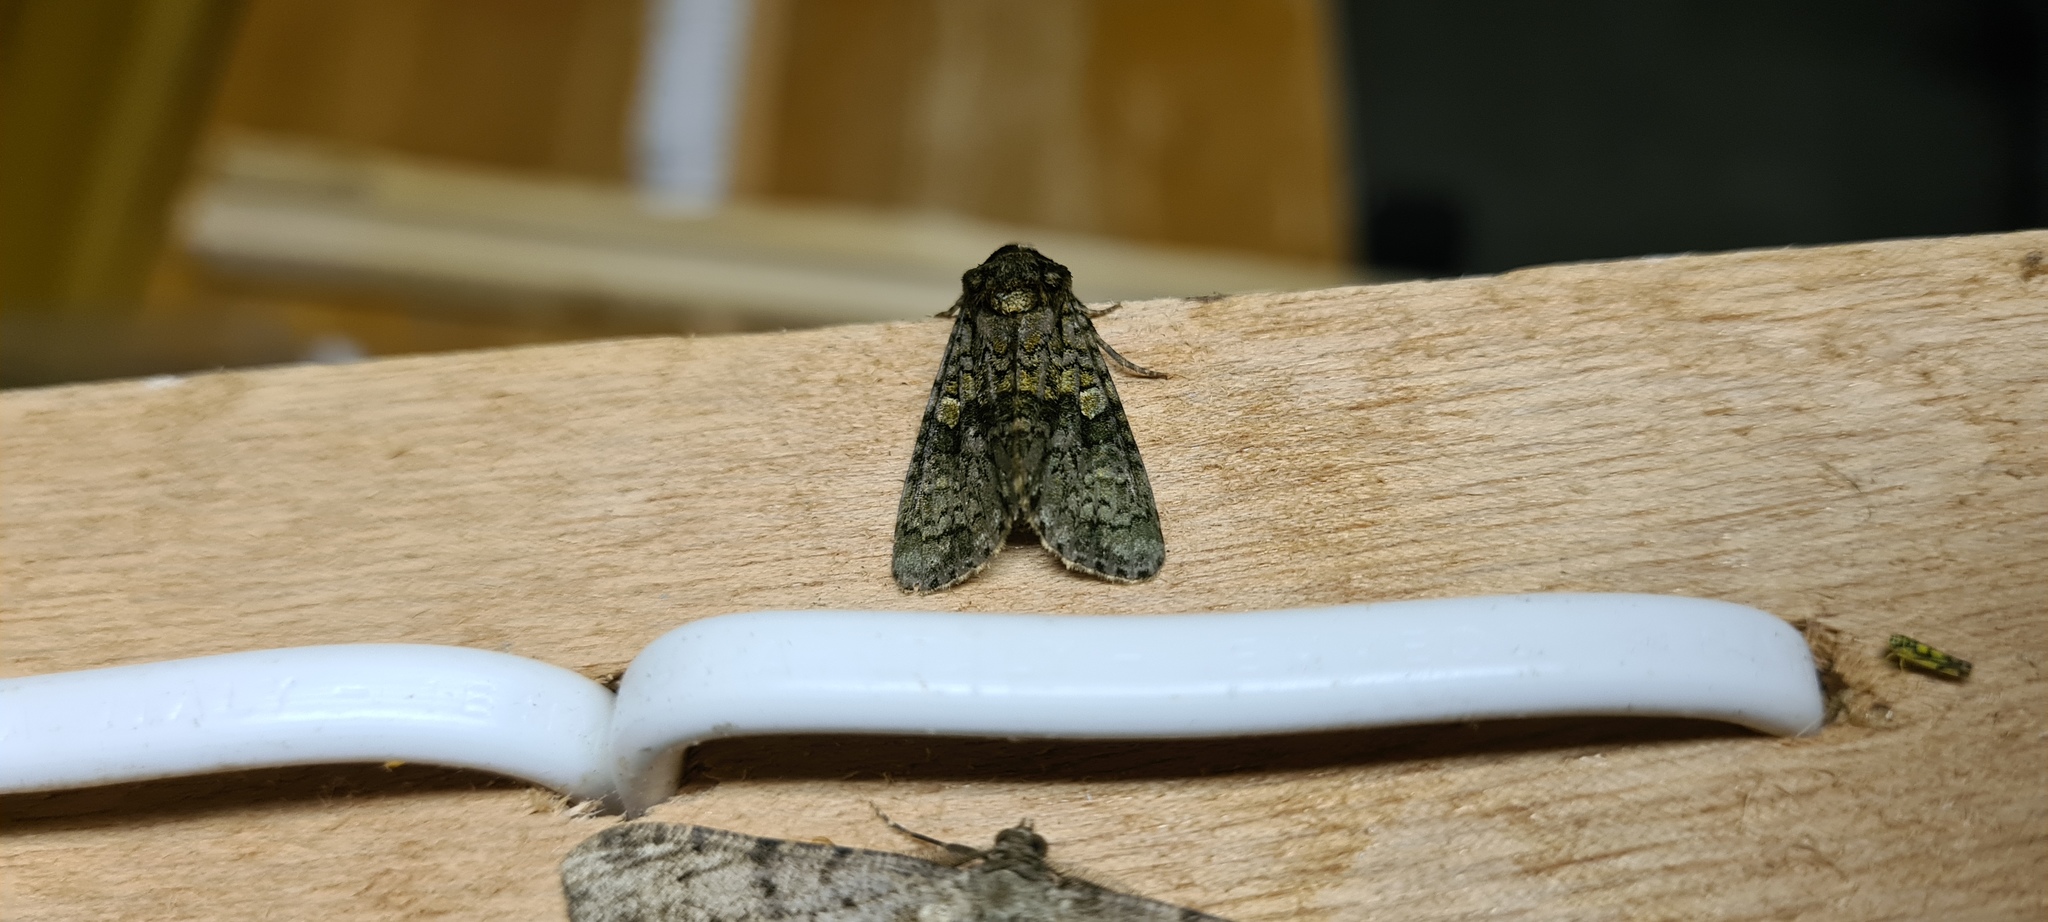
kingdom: Animalia
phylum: Arthropoda
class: Insecta
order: Lepidoptera
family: Noctuidae
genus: Craniophora
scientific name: Craniophora ligustri
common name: Coronet
